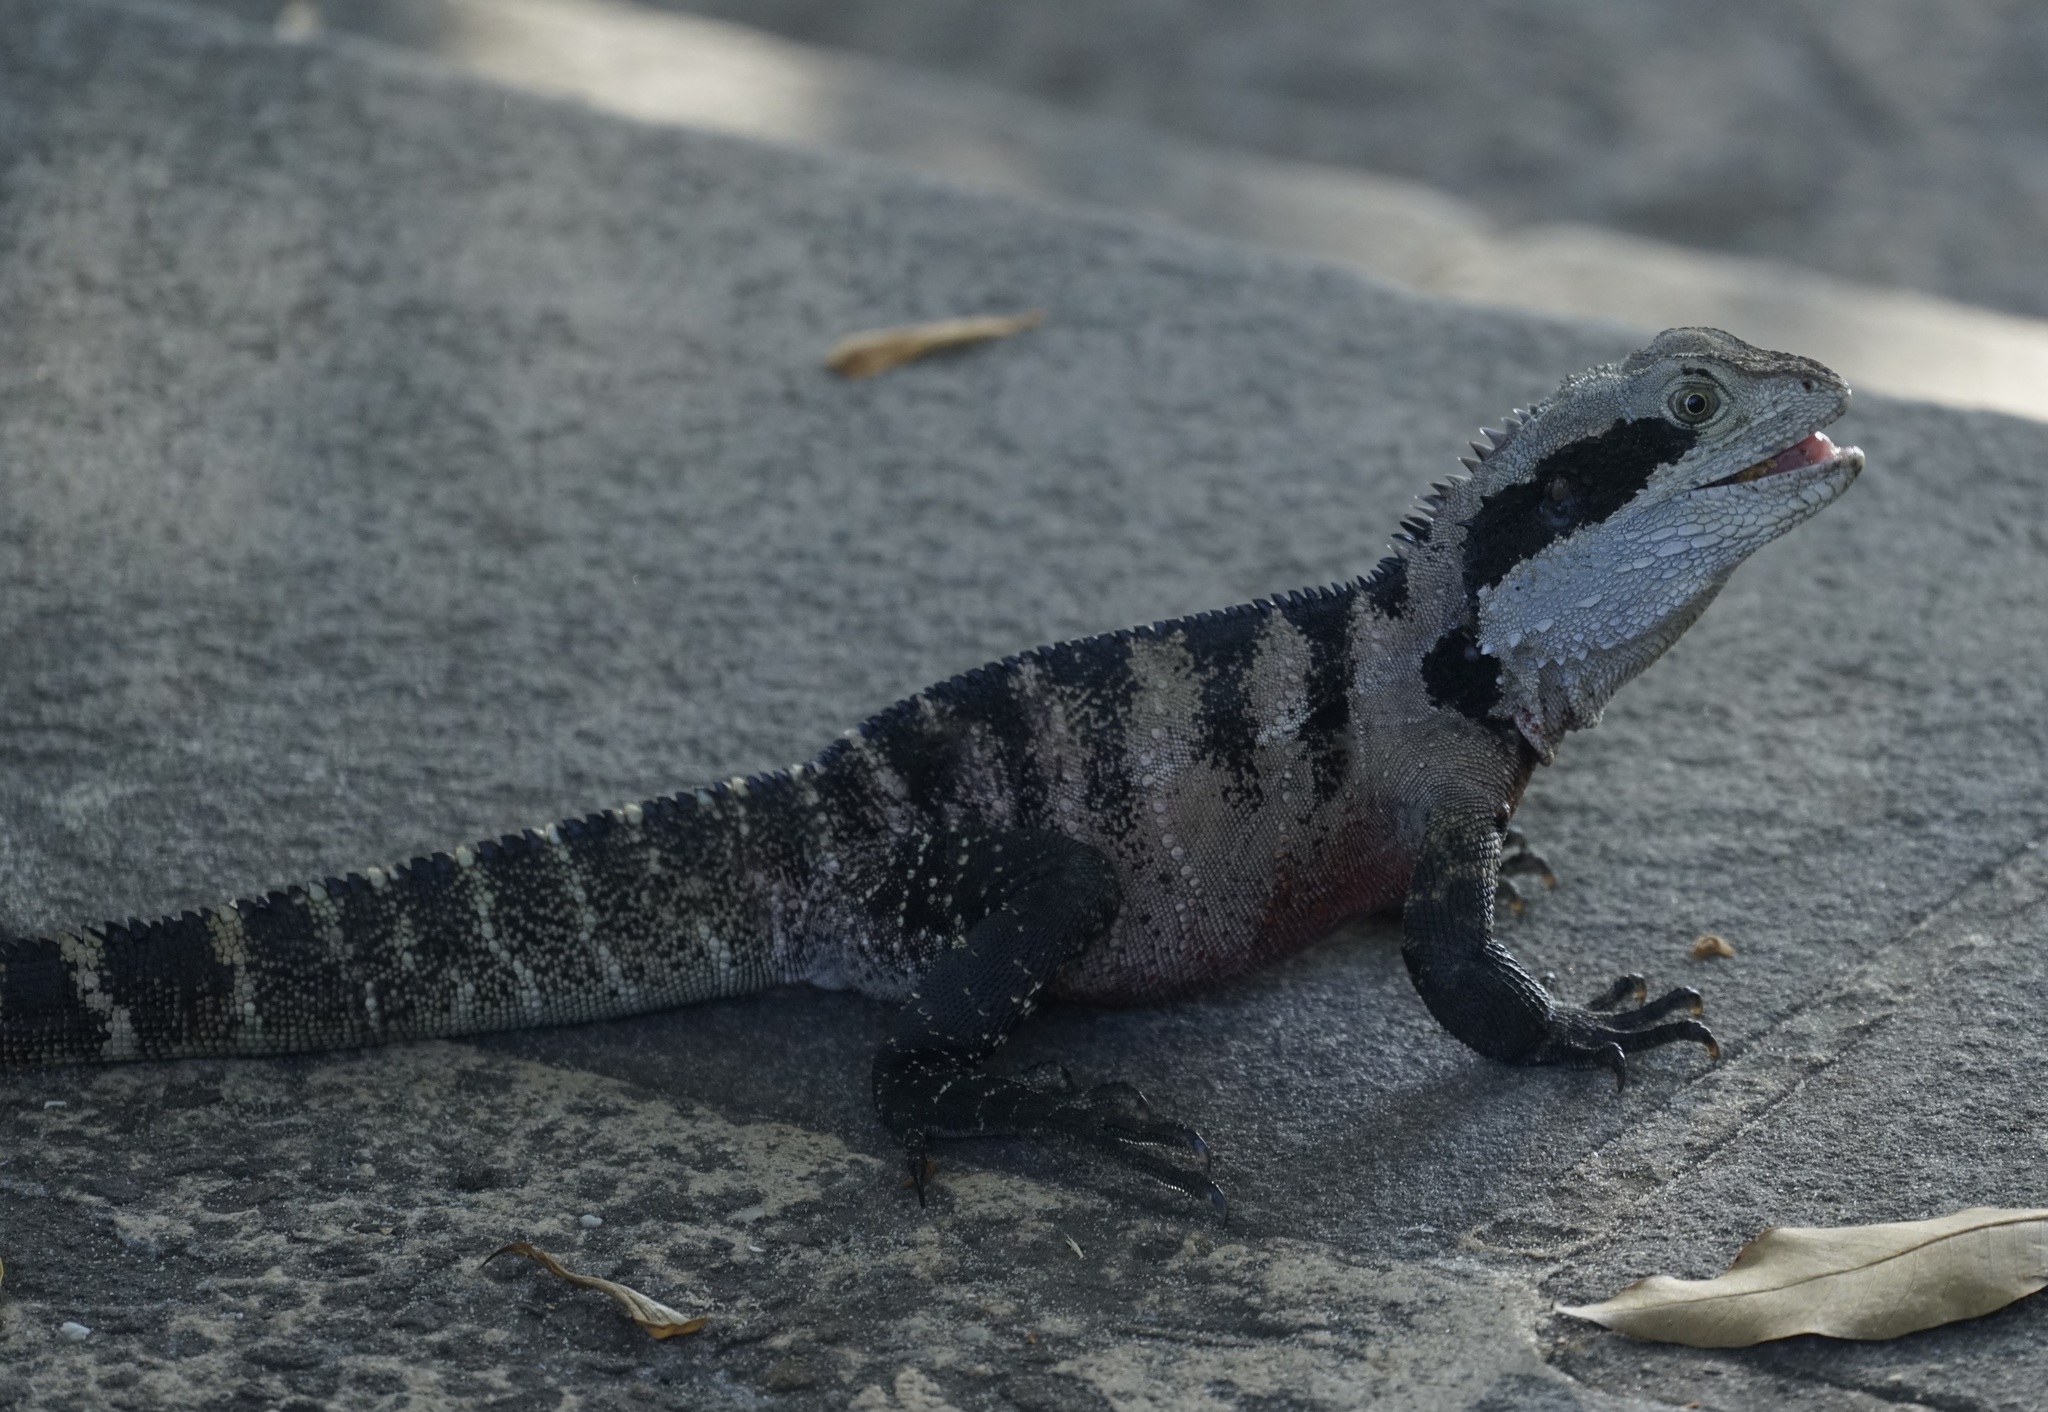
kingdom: Animalia
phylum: Chordata
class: Squamata
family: Agamidae
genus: Intellagama
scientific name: Intellagama lesueurii
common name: Eastern water dragon
